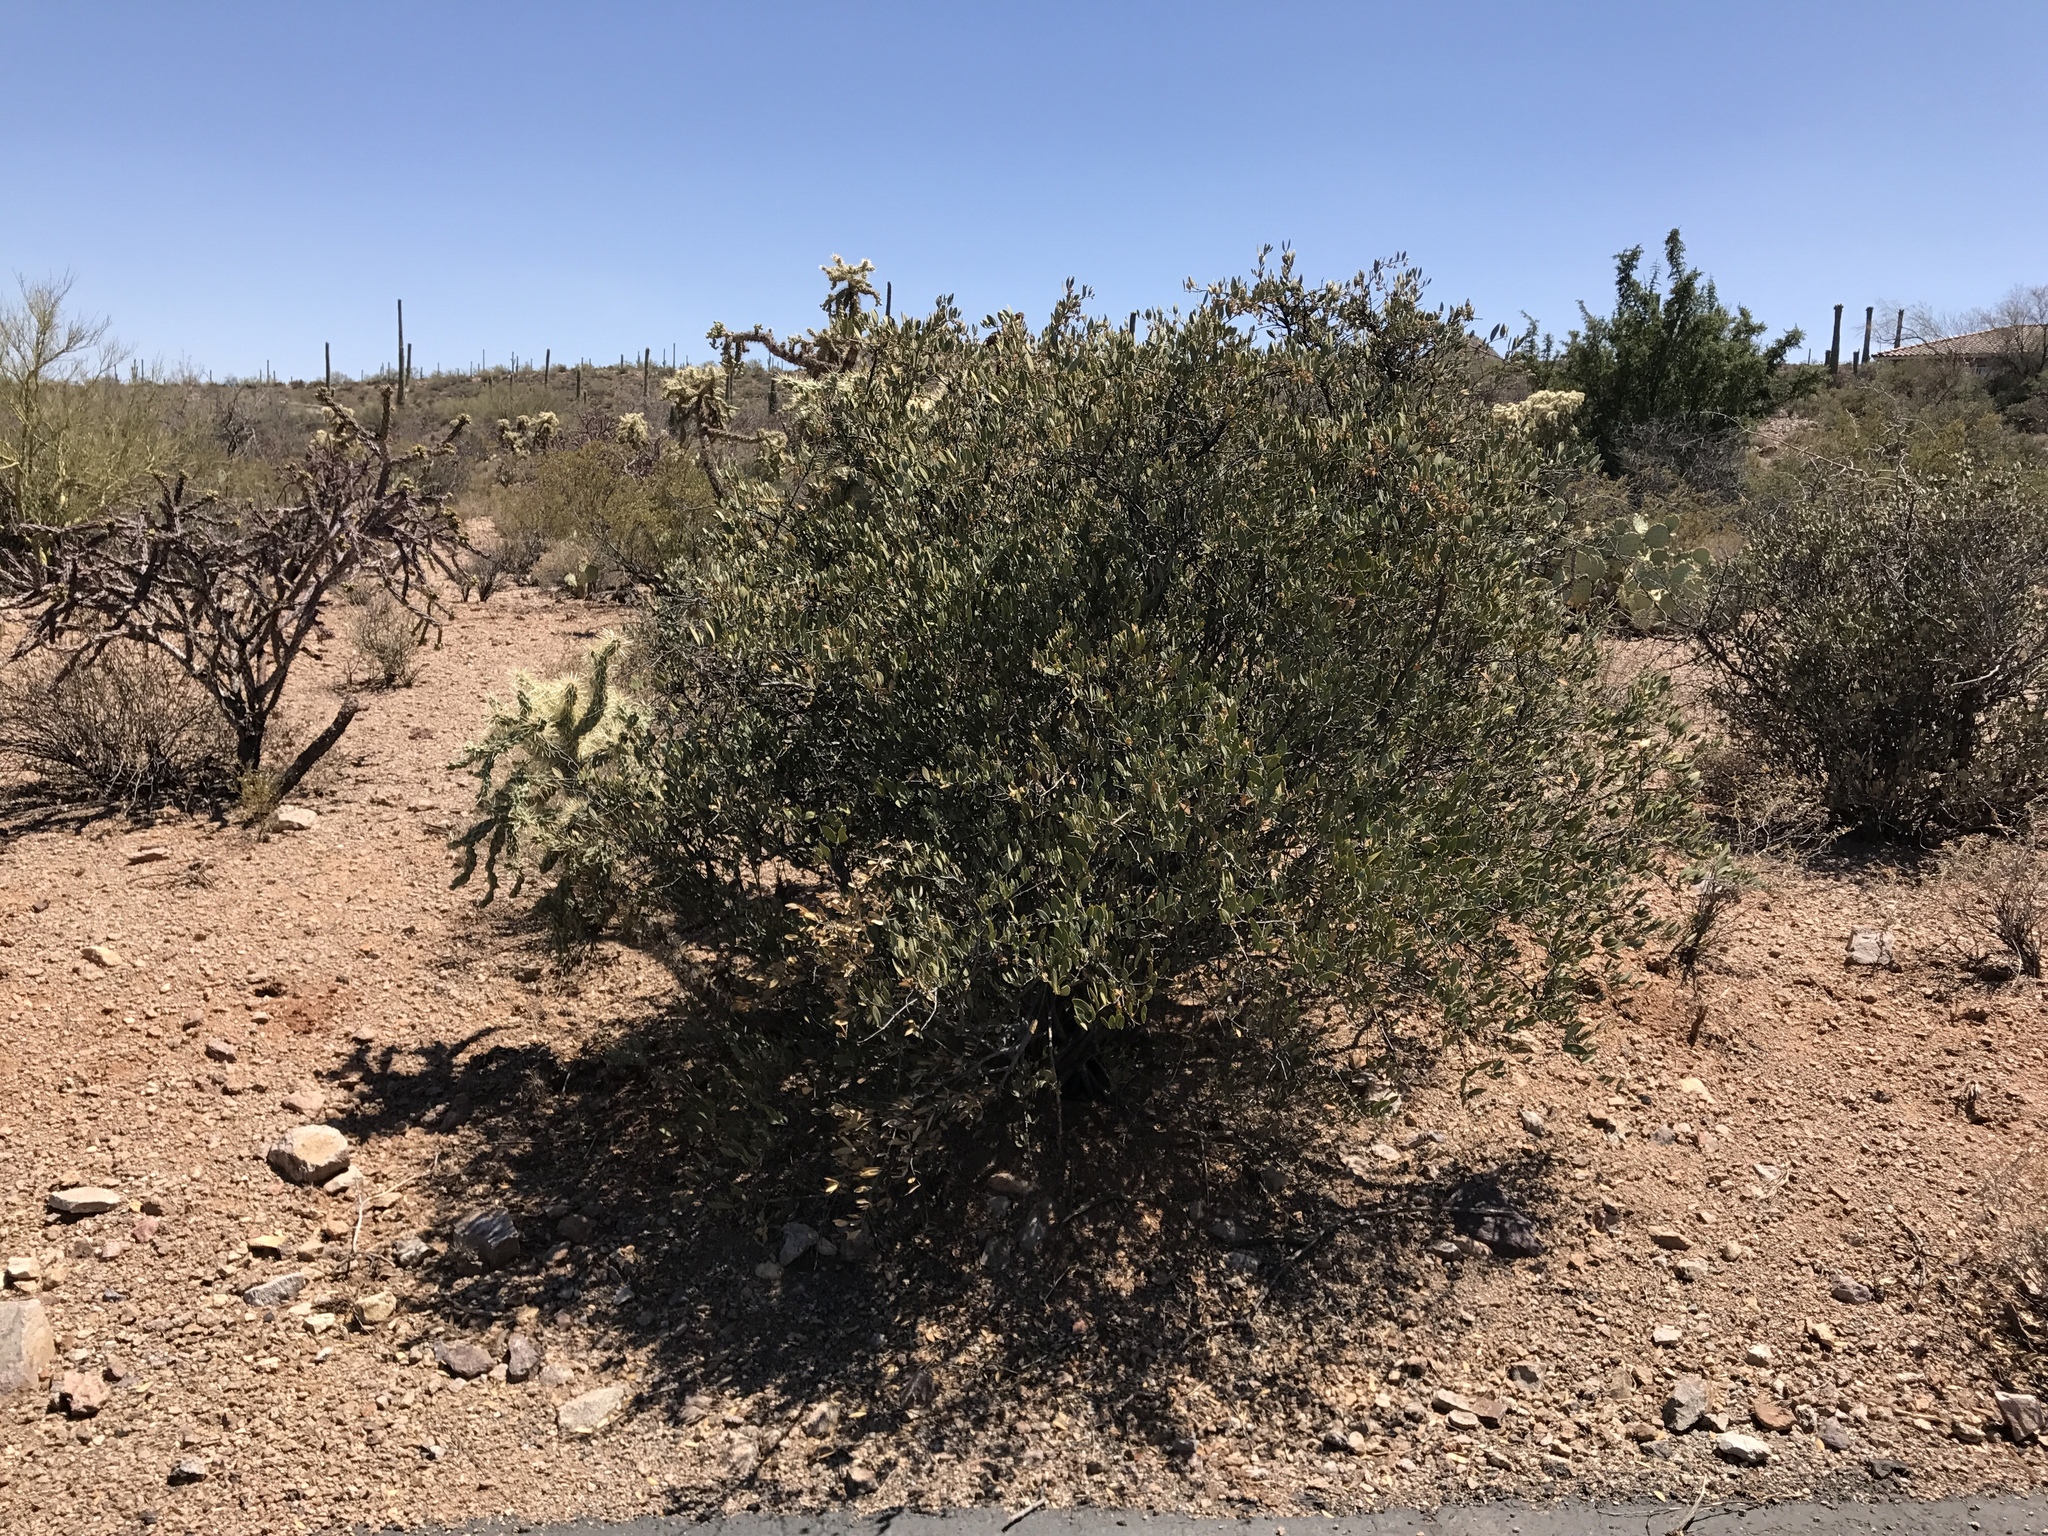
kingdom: Plantae
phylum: Tracheophyta
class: Magnoliopsida
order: Caryophyllales
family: Simmondsiaceae
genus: Simmondsia
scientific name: Simmondsia chinensis
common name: Jojoba
